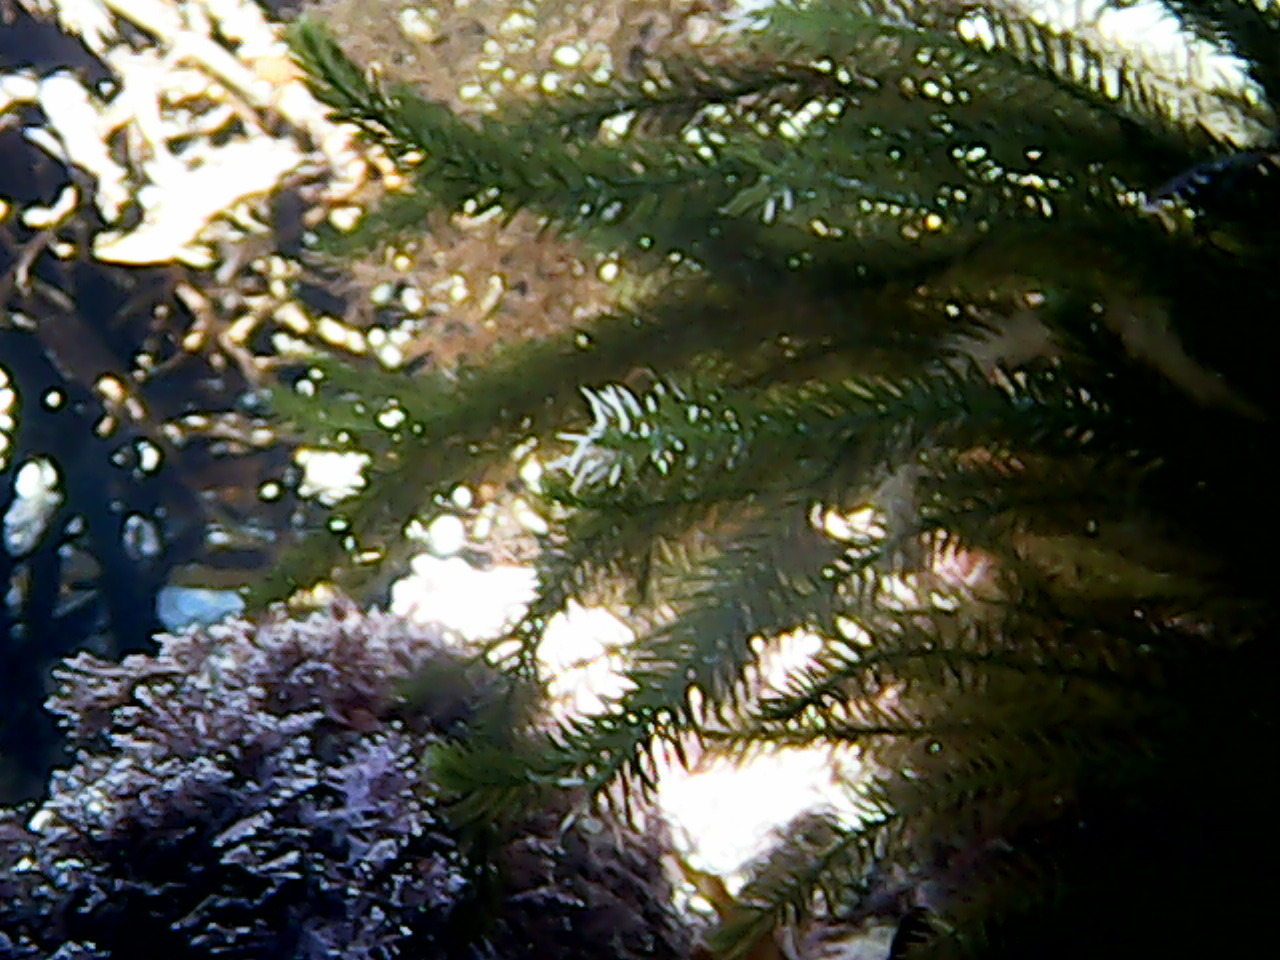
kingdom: Plantae
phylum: Chlorophyta
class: Ulvophyceae
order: Bryopsidales
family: Caulerpaceae
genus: Caulerpa
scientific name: Caulerpa brownii
